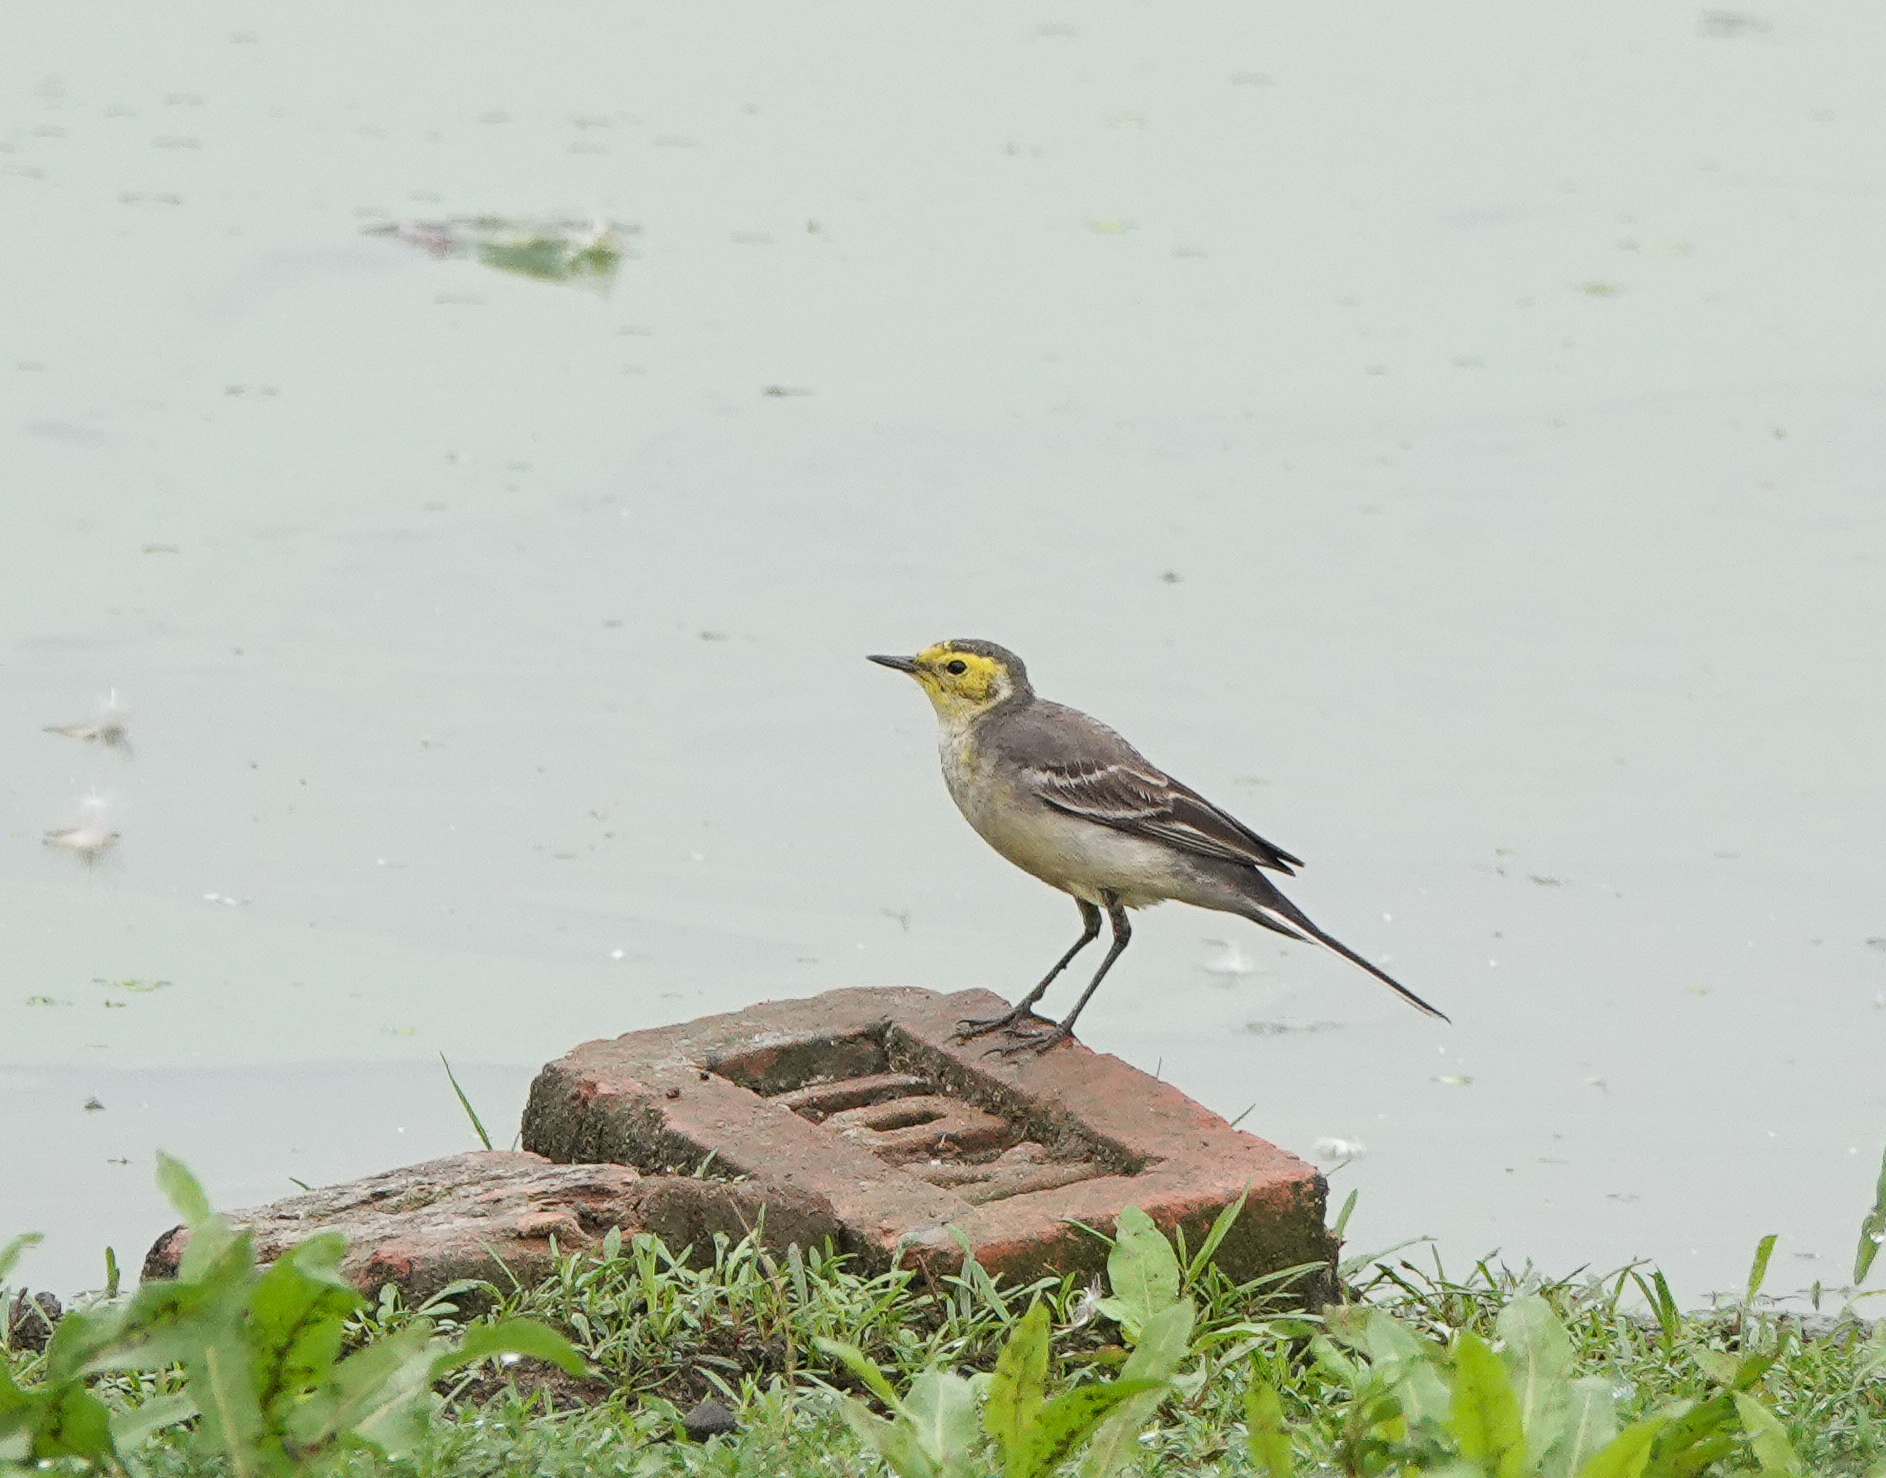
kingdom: Animalia
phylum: Chordata
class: Aves
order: Passeriformes
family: Motacillidae
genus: Motacilla
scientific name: Motacilla citreola
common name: Citrine wagtail
